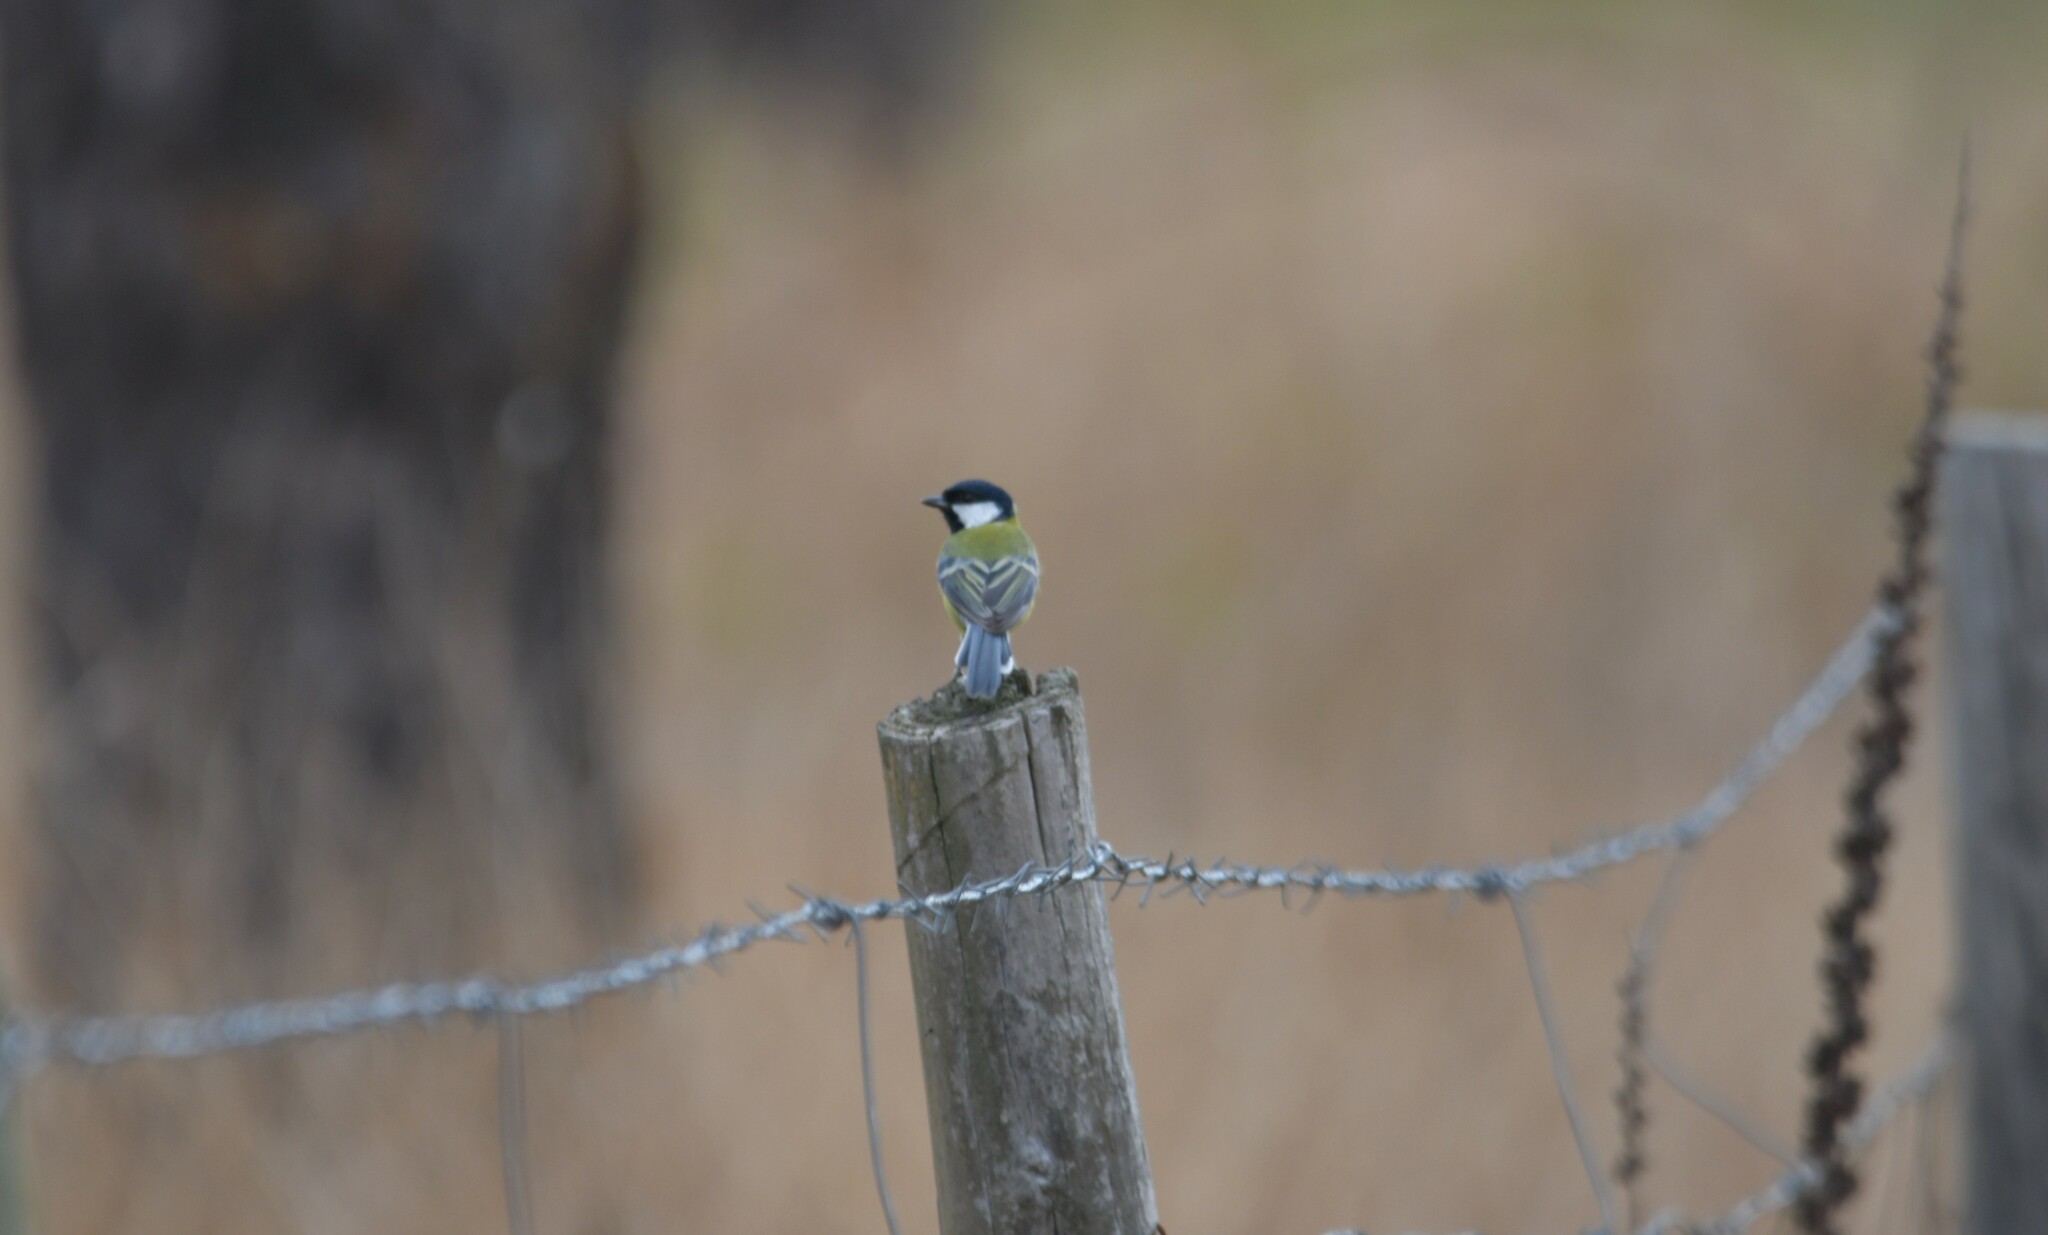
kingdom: Animalia
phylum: Chordata
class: Aves
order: Passeriformes
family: Paridae
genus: Parus
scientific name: Parus major
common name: Great tit
